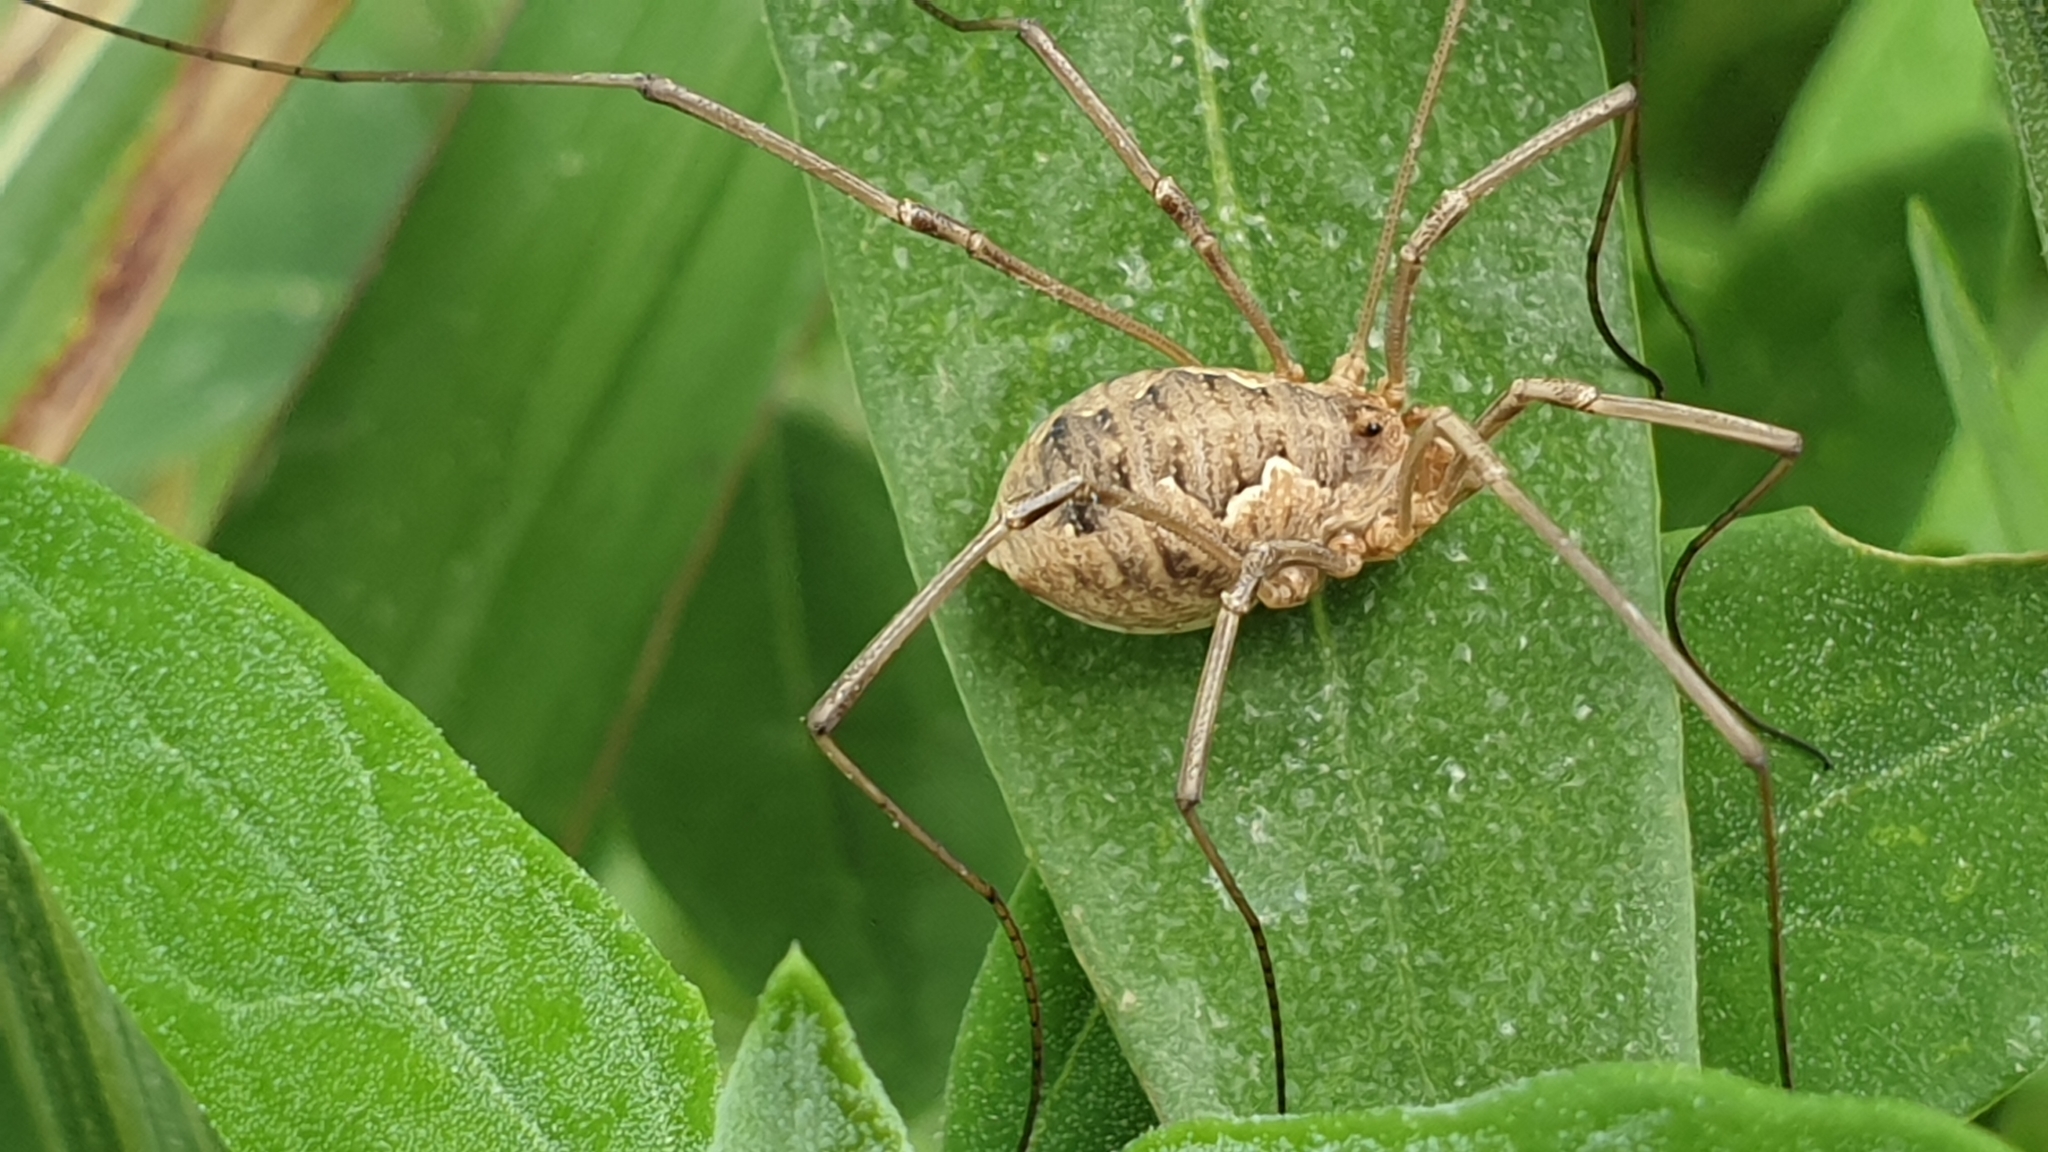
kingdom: Animalia
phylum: Arthropoda
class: Arachnida
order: Opiliones
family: Phalangiidae
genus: Phalangium
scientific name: Phalangium opilio
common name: Daddy longleg
